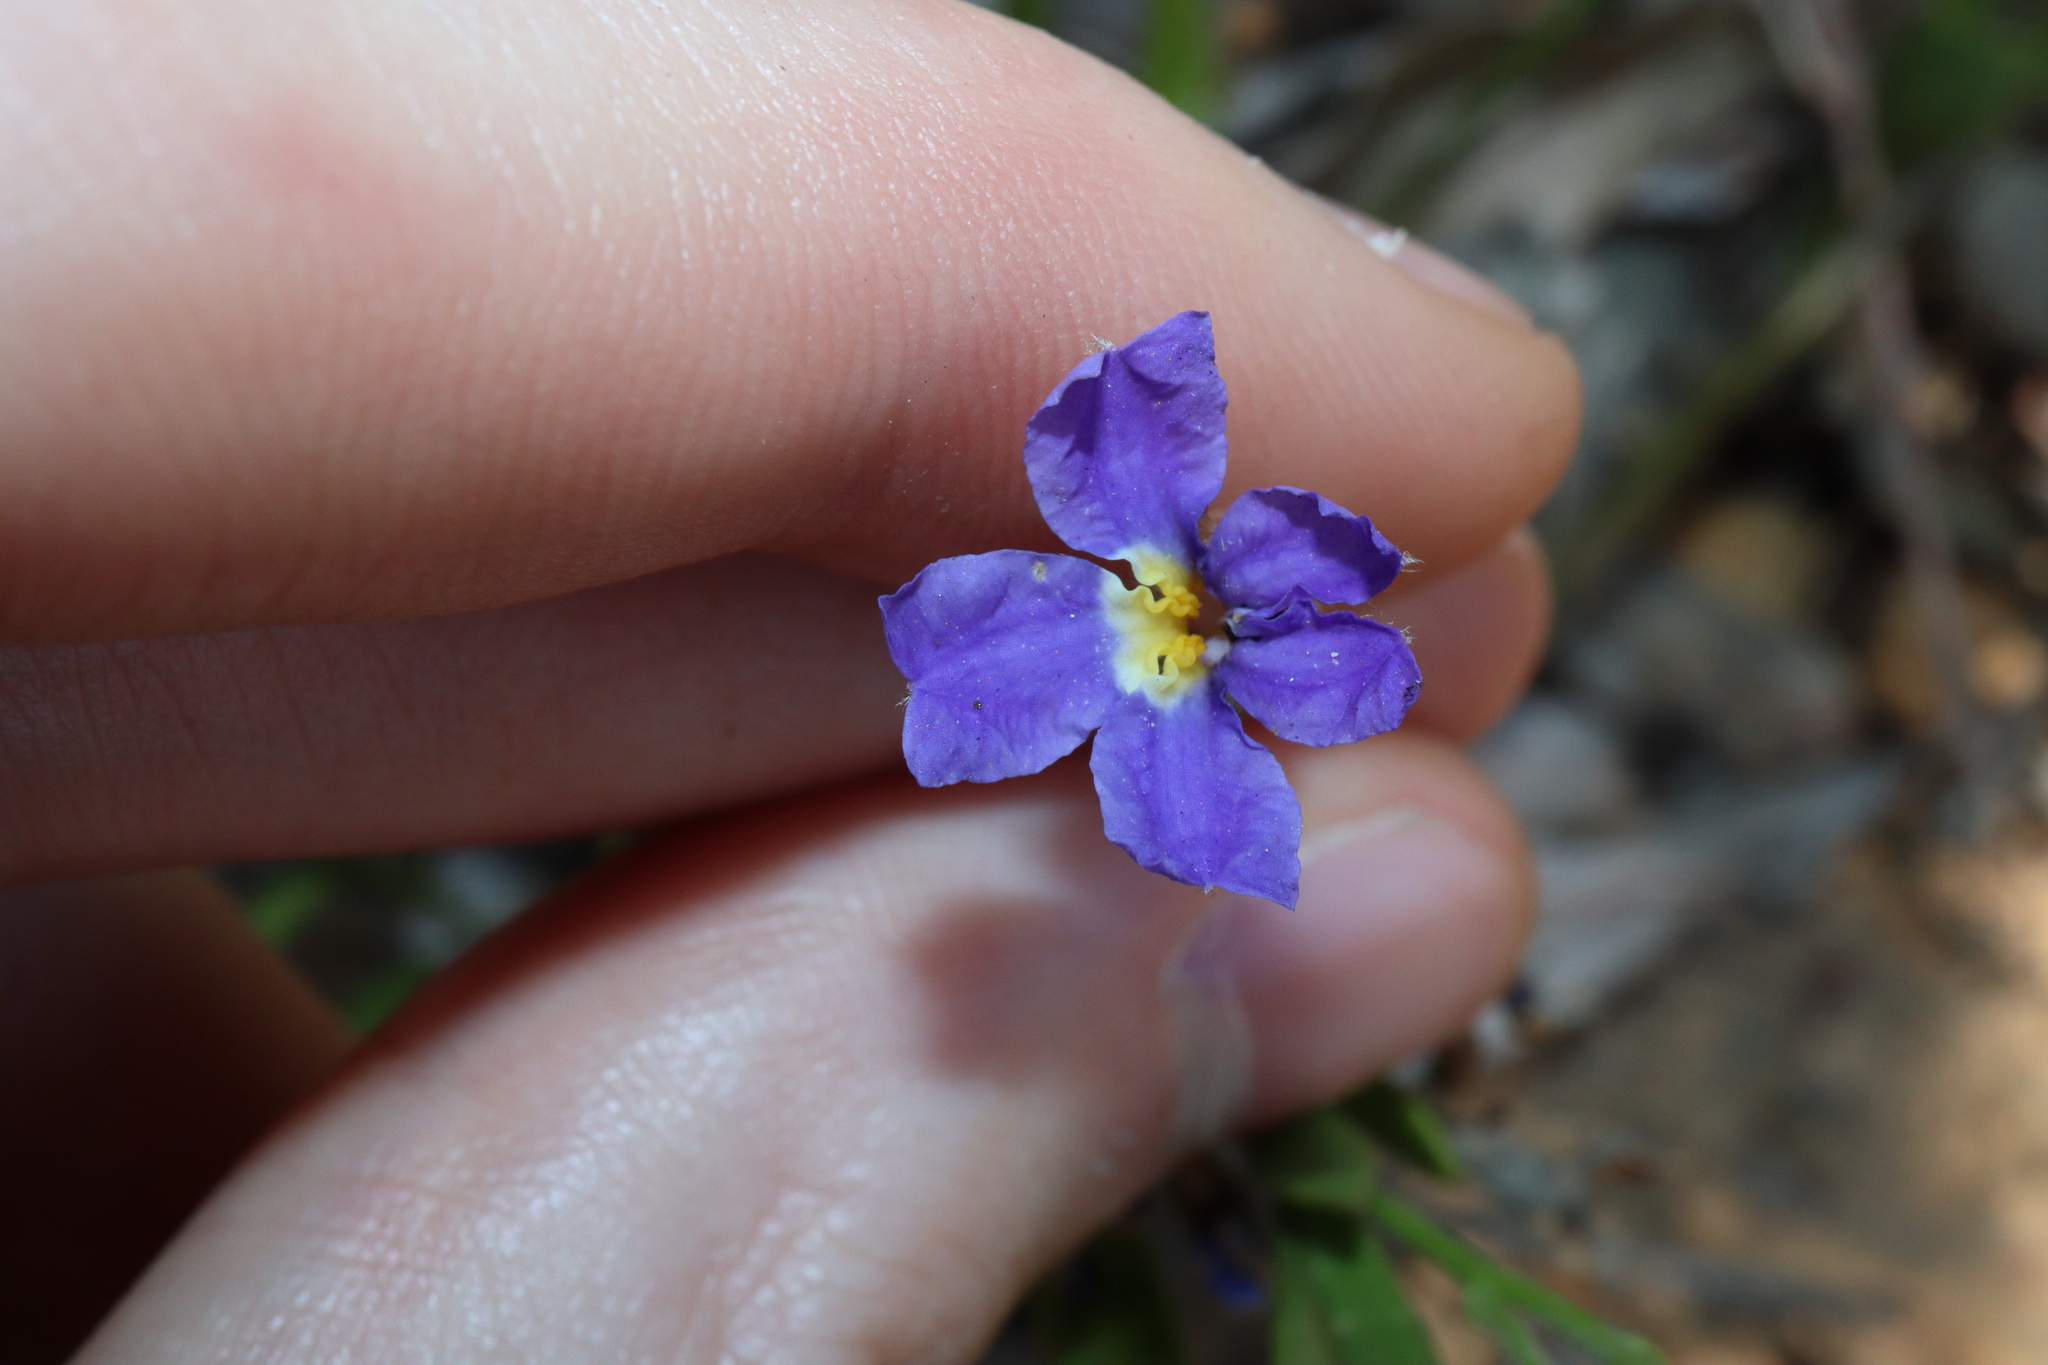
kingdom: Plantae
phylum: Tracheophyta
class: Magnoliopsida
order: Asterales
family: Goodeniaceae
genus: Dampiera
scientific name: Dampiera alata
